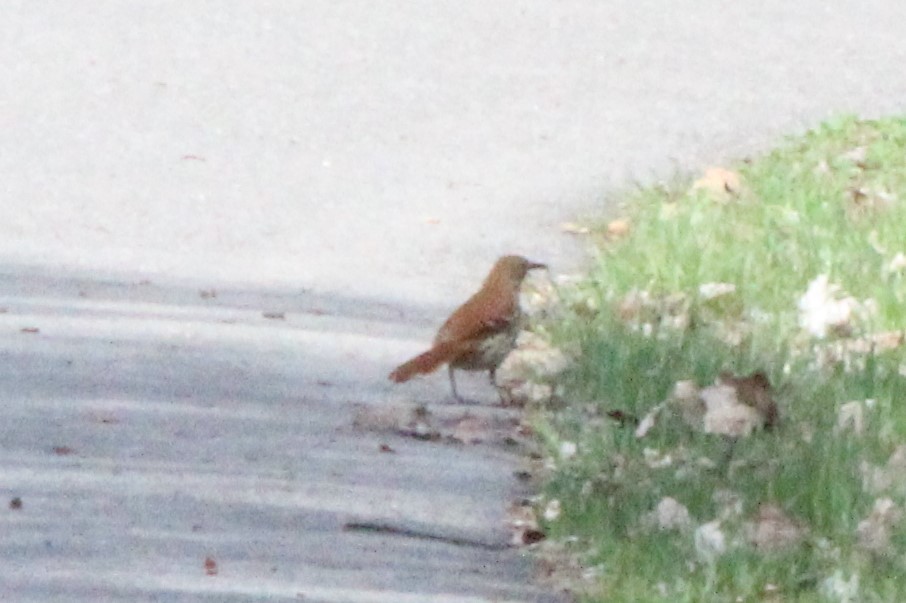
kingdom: Animalia
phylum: Chordata
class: Aves
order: Passeriformes
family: Mimidae
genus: Toxostoma
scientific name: Toxostoma rufum
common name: Brown thrasher
